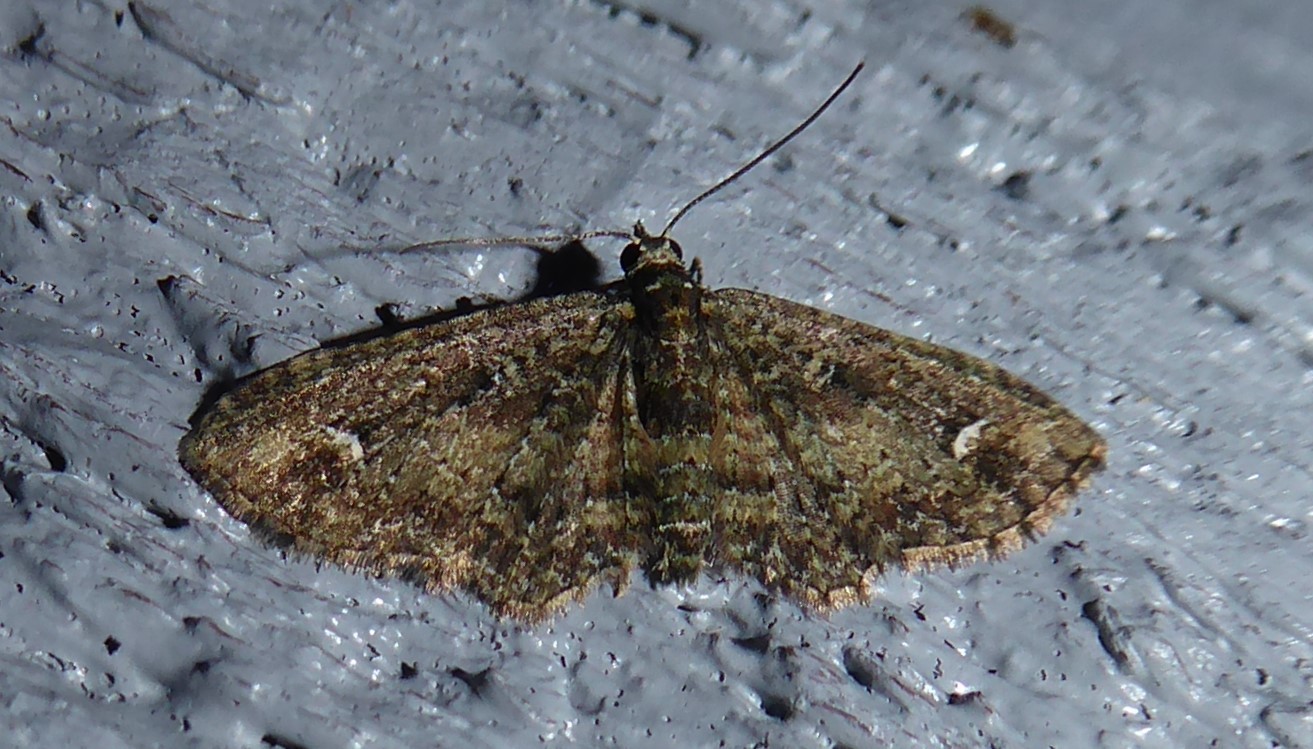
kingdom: Animalia
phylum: Arthropoda
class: Insecta
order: Lepidoptera
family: Geometridae
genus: Pasiphilodes
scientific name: Pasiphilodes testulata
